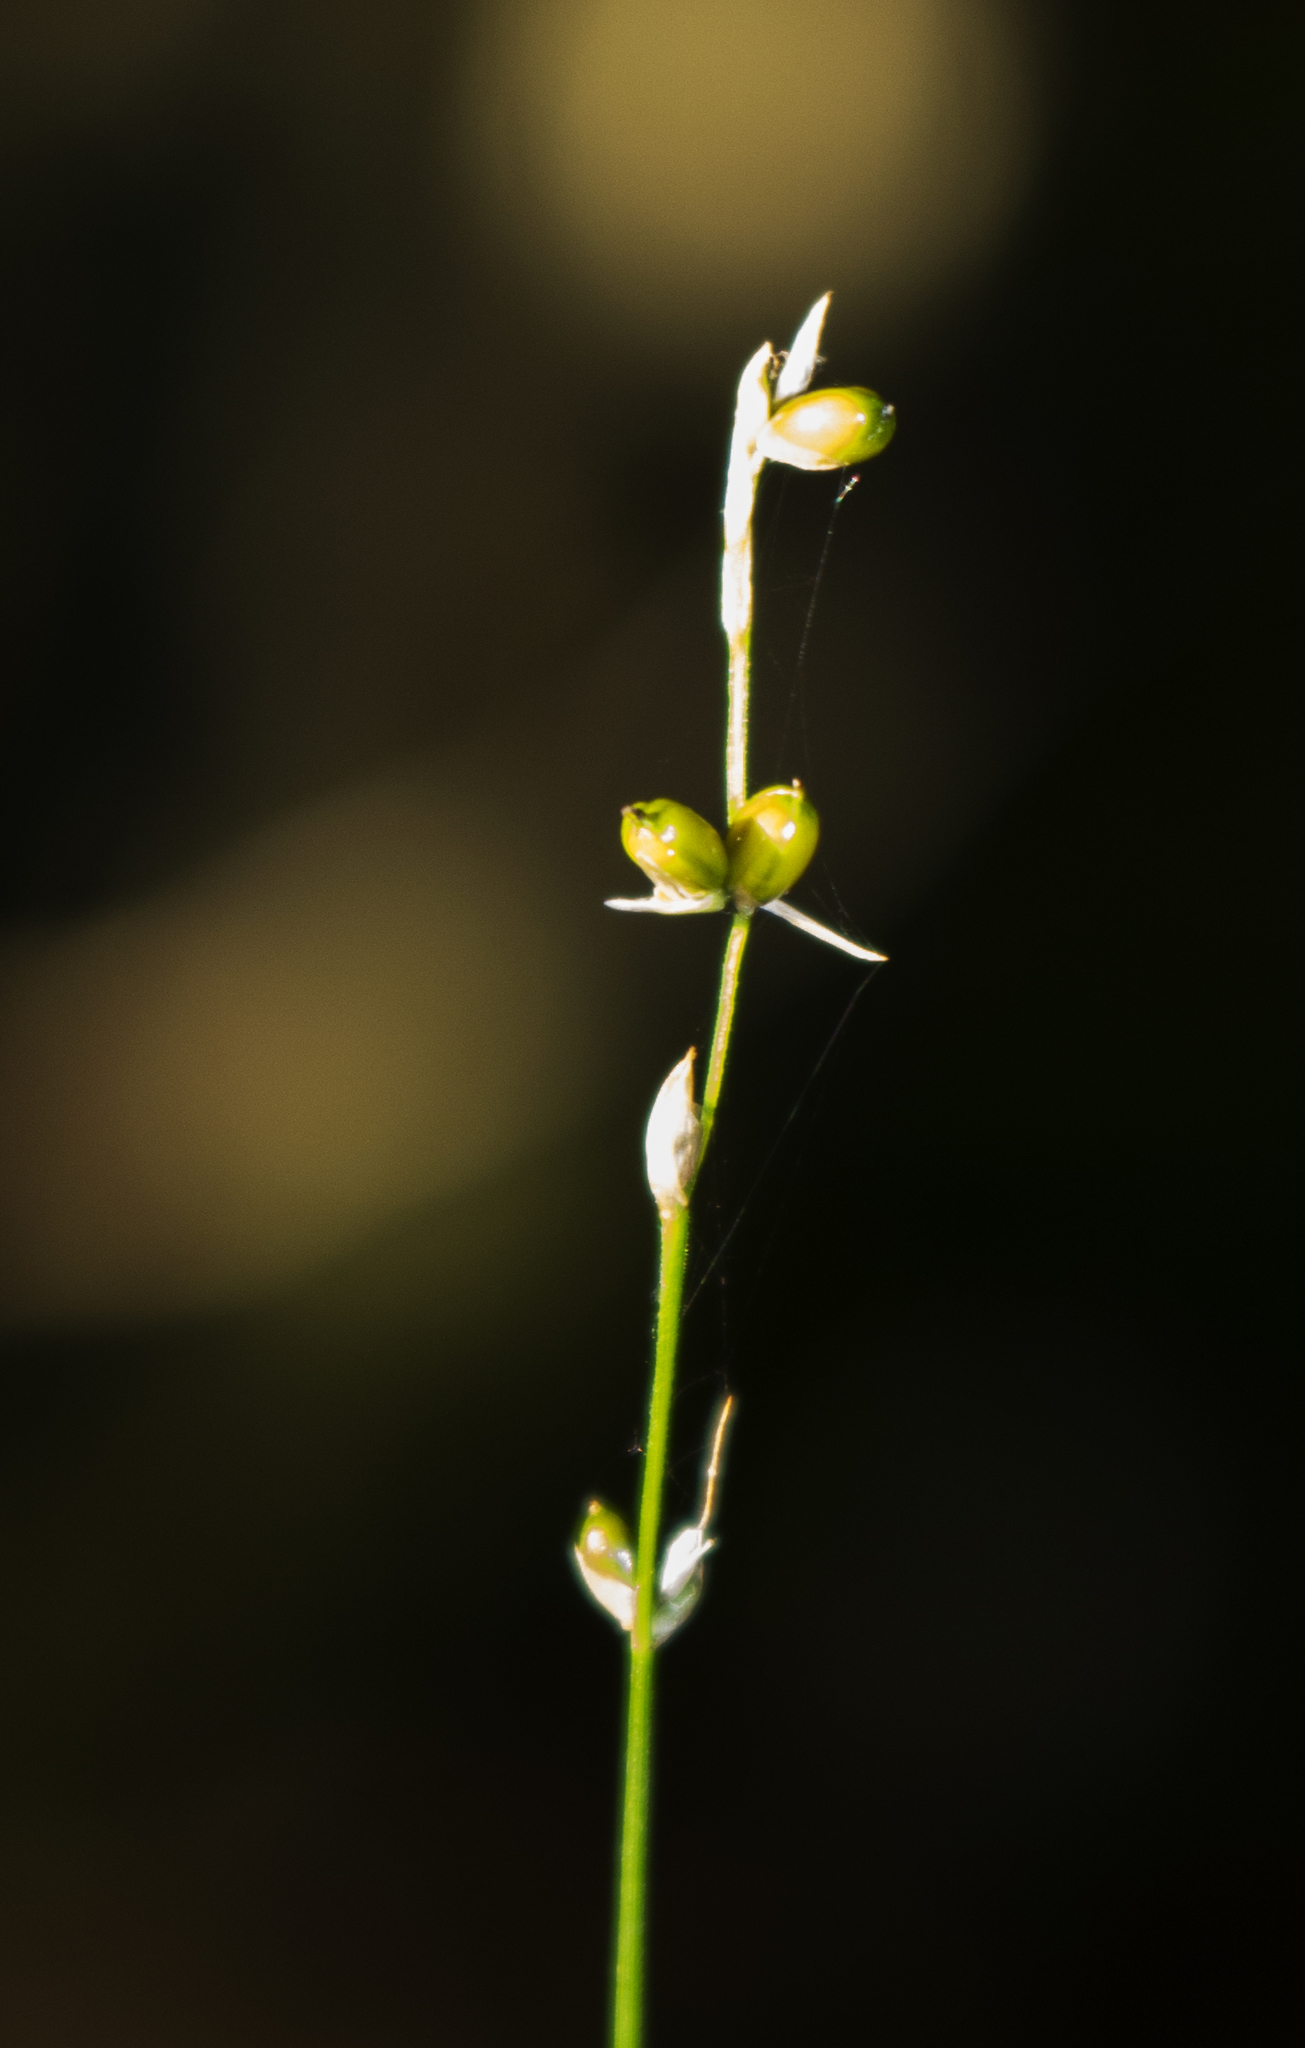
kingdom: Plantae
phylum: Tracheophyta
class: Liliopsida
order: Poales
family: Cyperaceae
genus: Carex
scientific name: Carex disperma
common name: Short-leaved sedge
